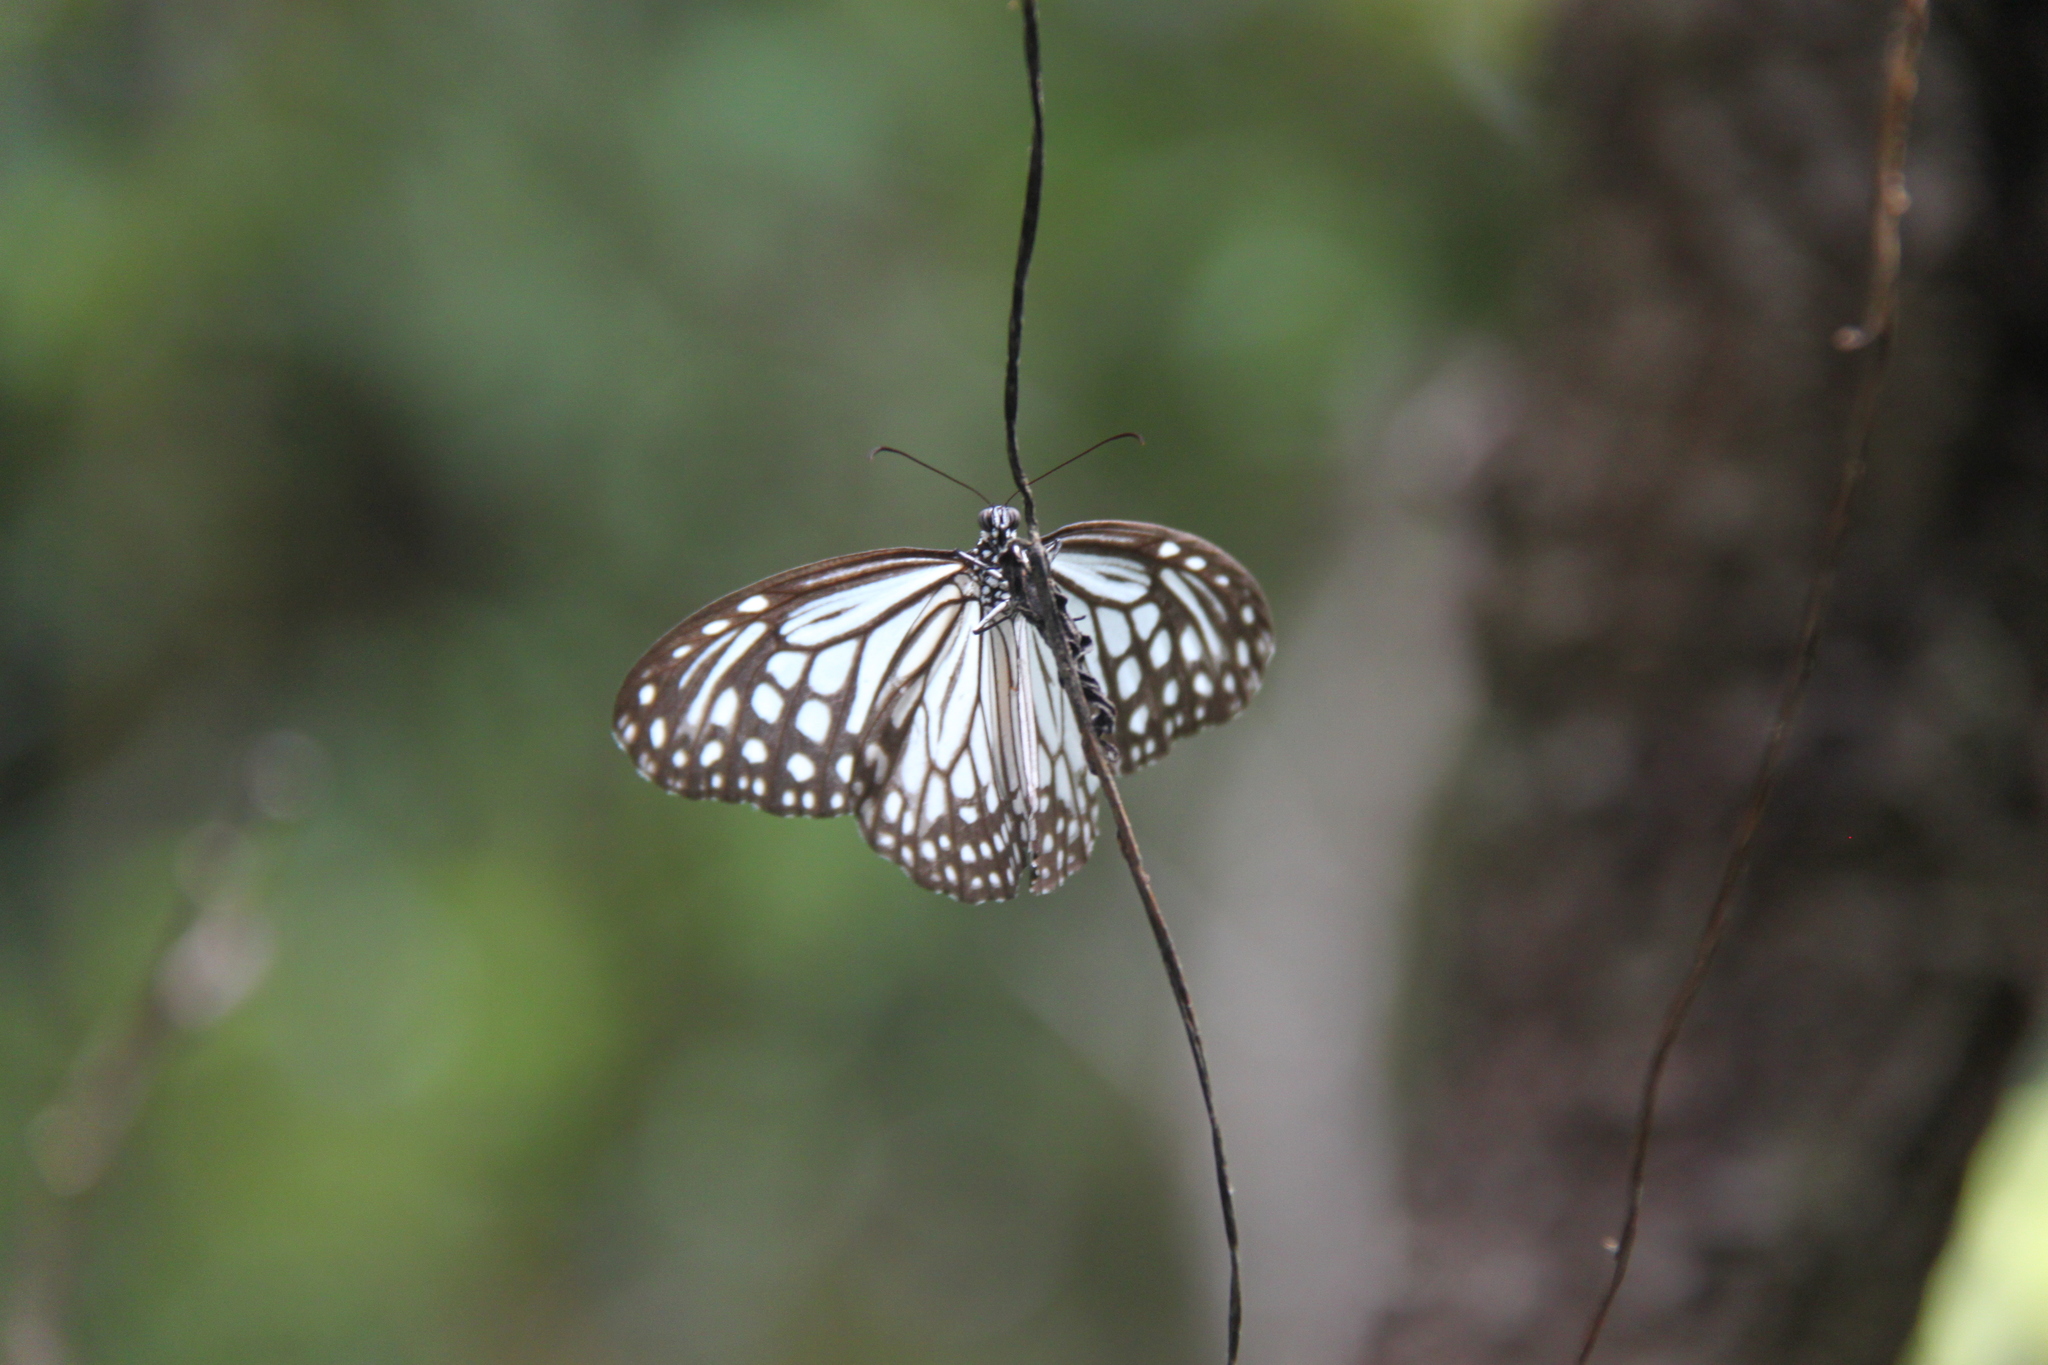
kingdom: Animalia
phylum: Arthropoda
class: Insecta
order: Lepidoptera
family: Nymphalidae
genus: Parantica
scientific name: Parantica aglea
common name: Glassy tiger
